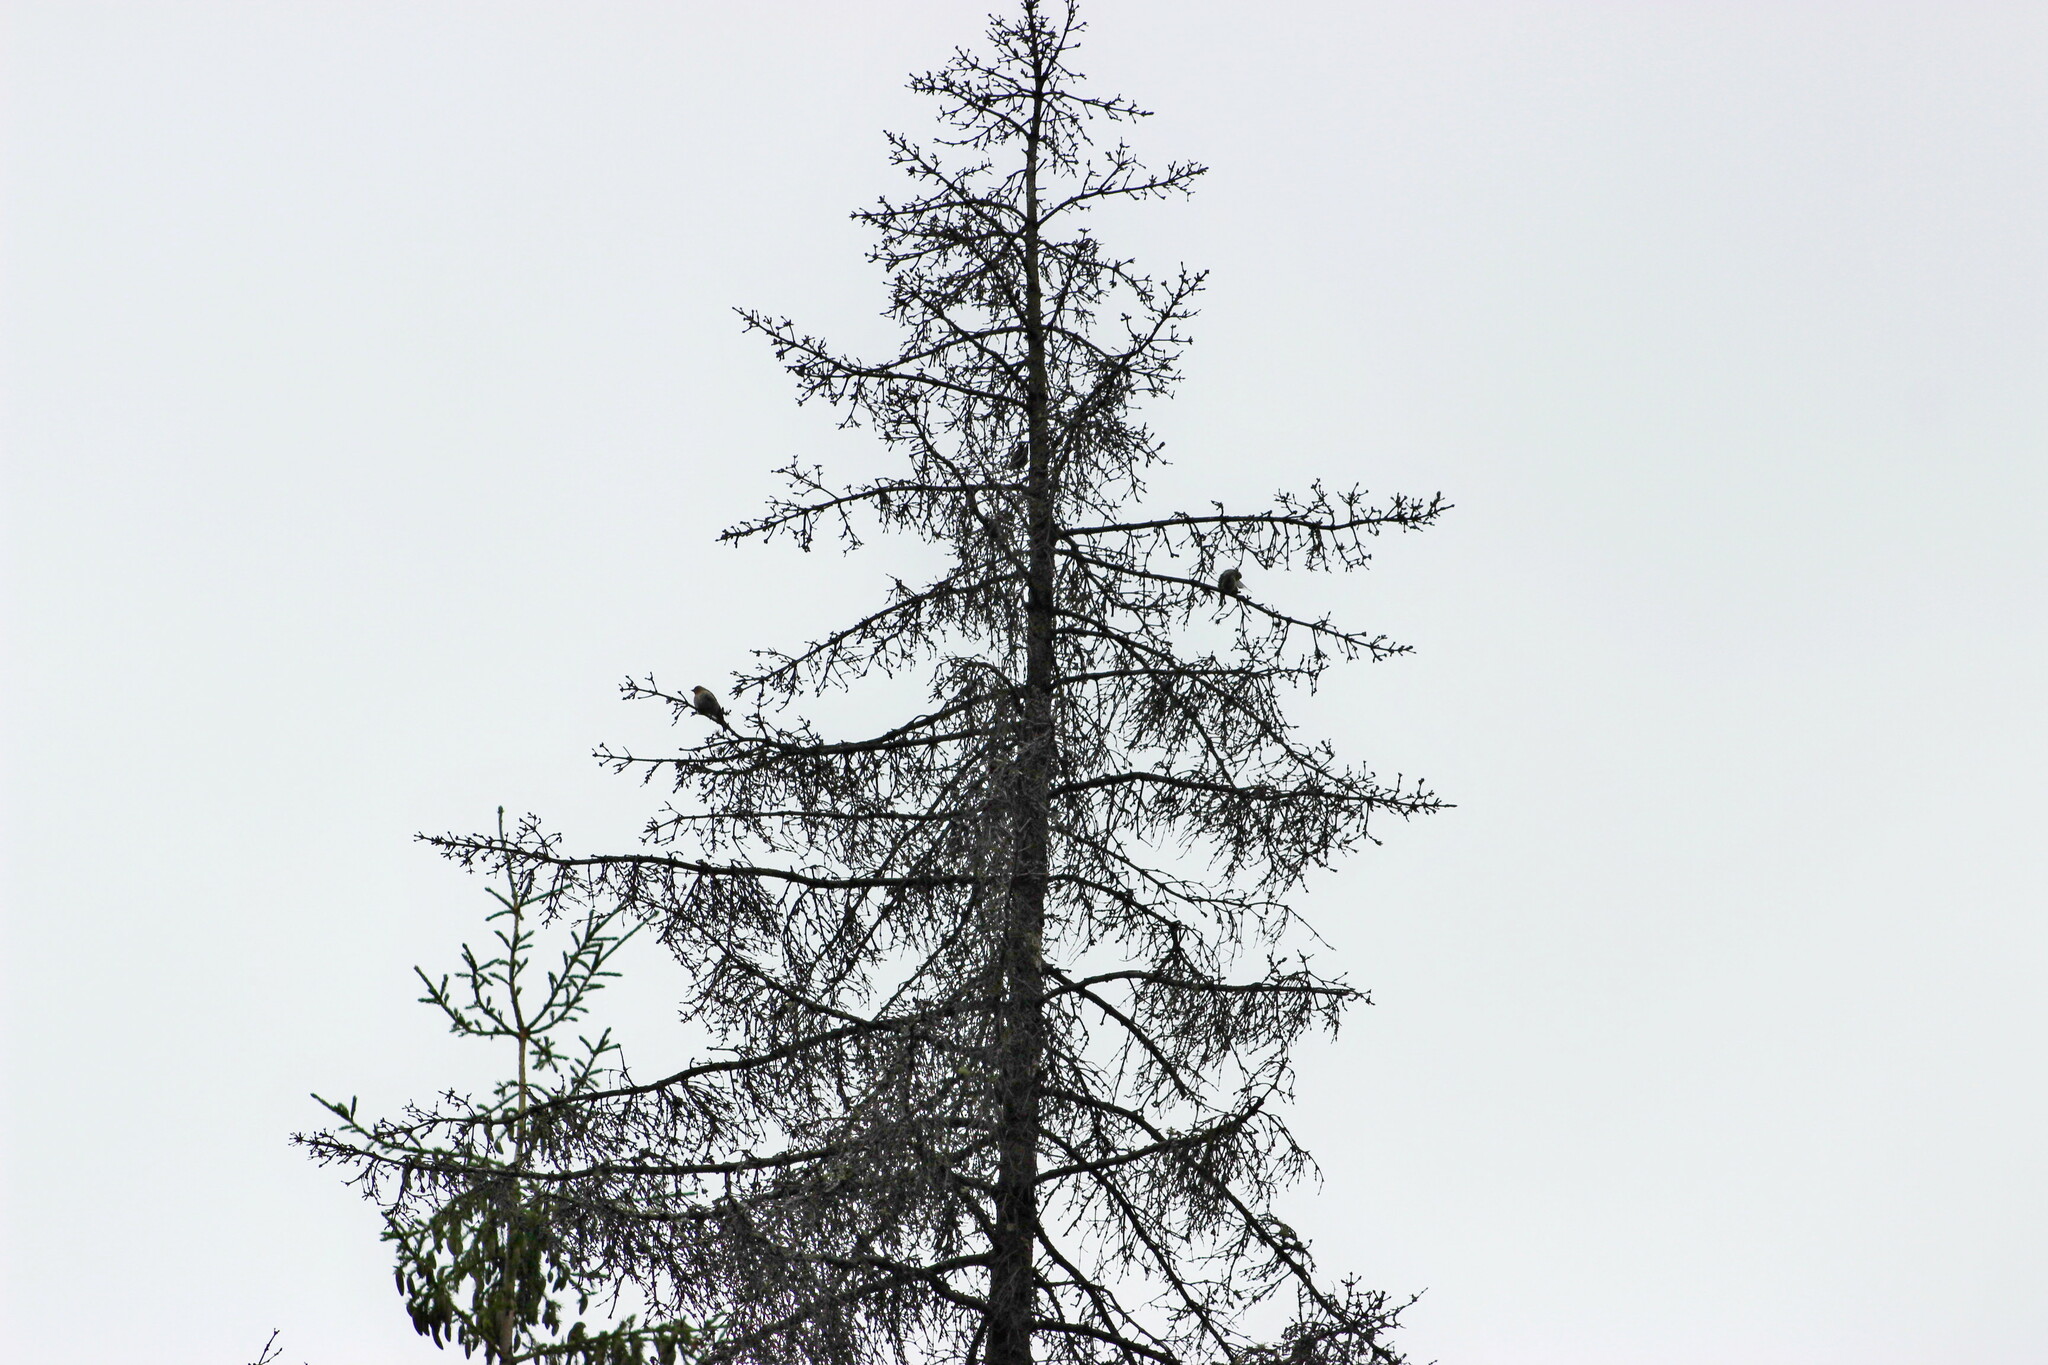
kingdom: Animalia
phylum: Chordata
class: Aves
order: Passeriformes
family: Fringillidae
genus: Acanthis
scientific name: Acanthis flammea
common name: Common redpoll
